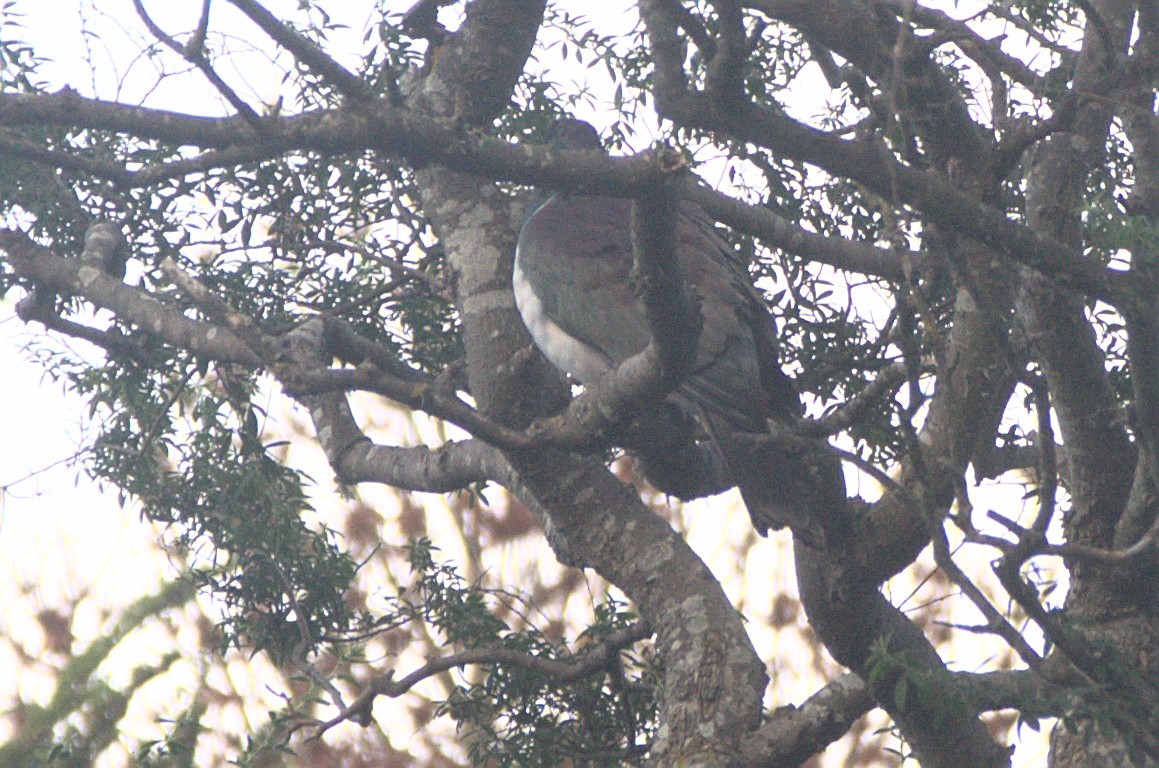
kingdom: Animalia
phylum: Chordata
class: Aves
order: Columbiformes
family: Columbidae
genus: Hemiphaga
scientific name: Hemiphaga novaeseelandiae
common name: New zealand pigeon
